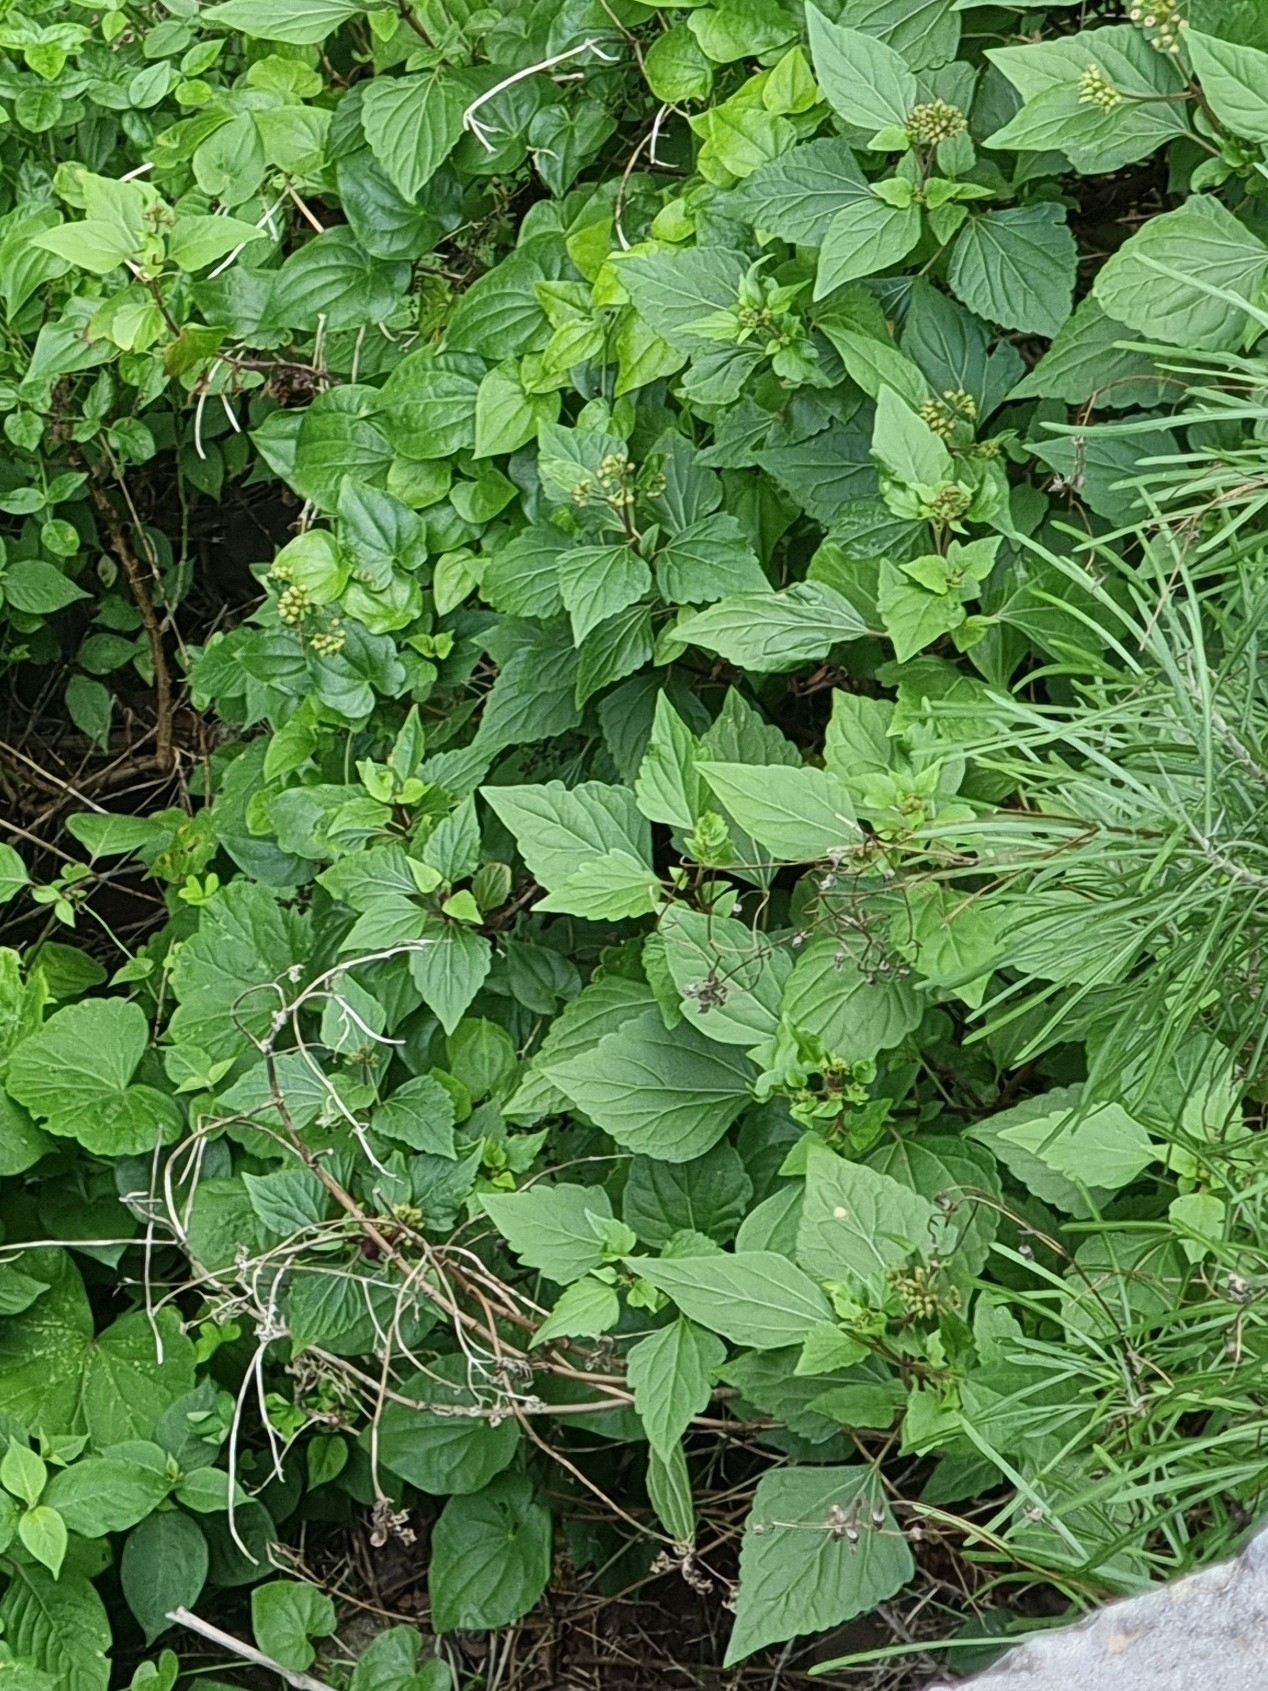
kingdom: Plantae
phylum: Tracheophyta
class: Magnoliopsida
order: Asterales
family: Asteraceae
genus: Ageratina
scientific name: Ageratina adenophora
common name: Sticky snakeroot
